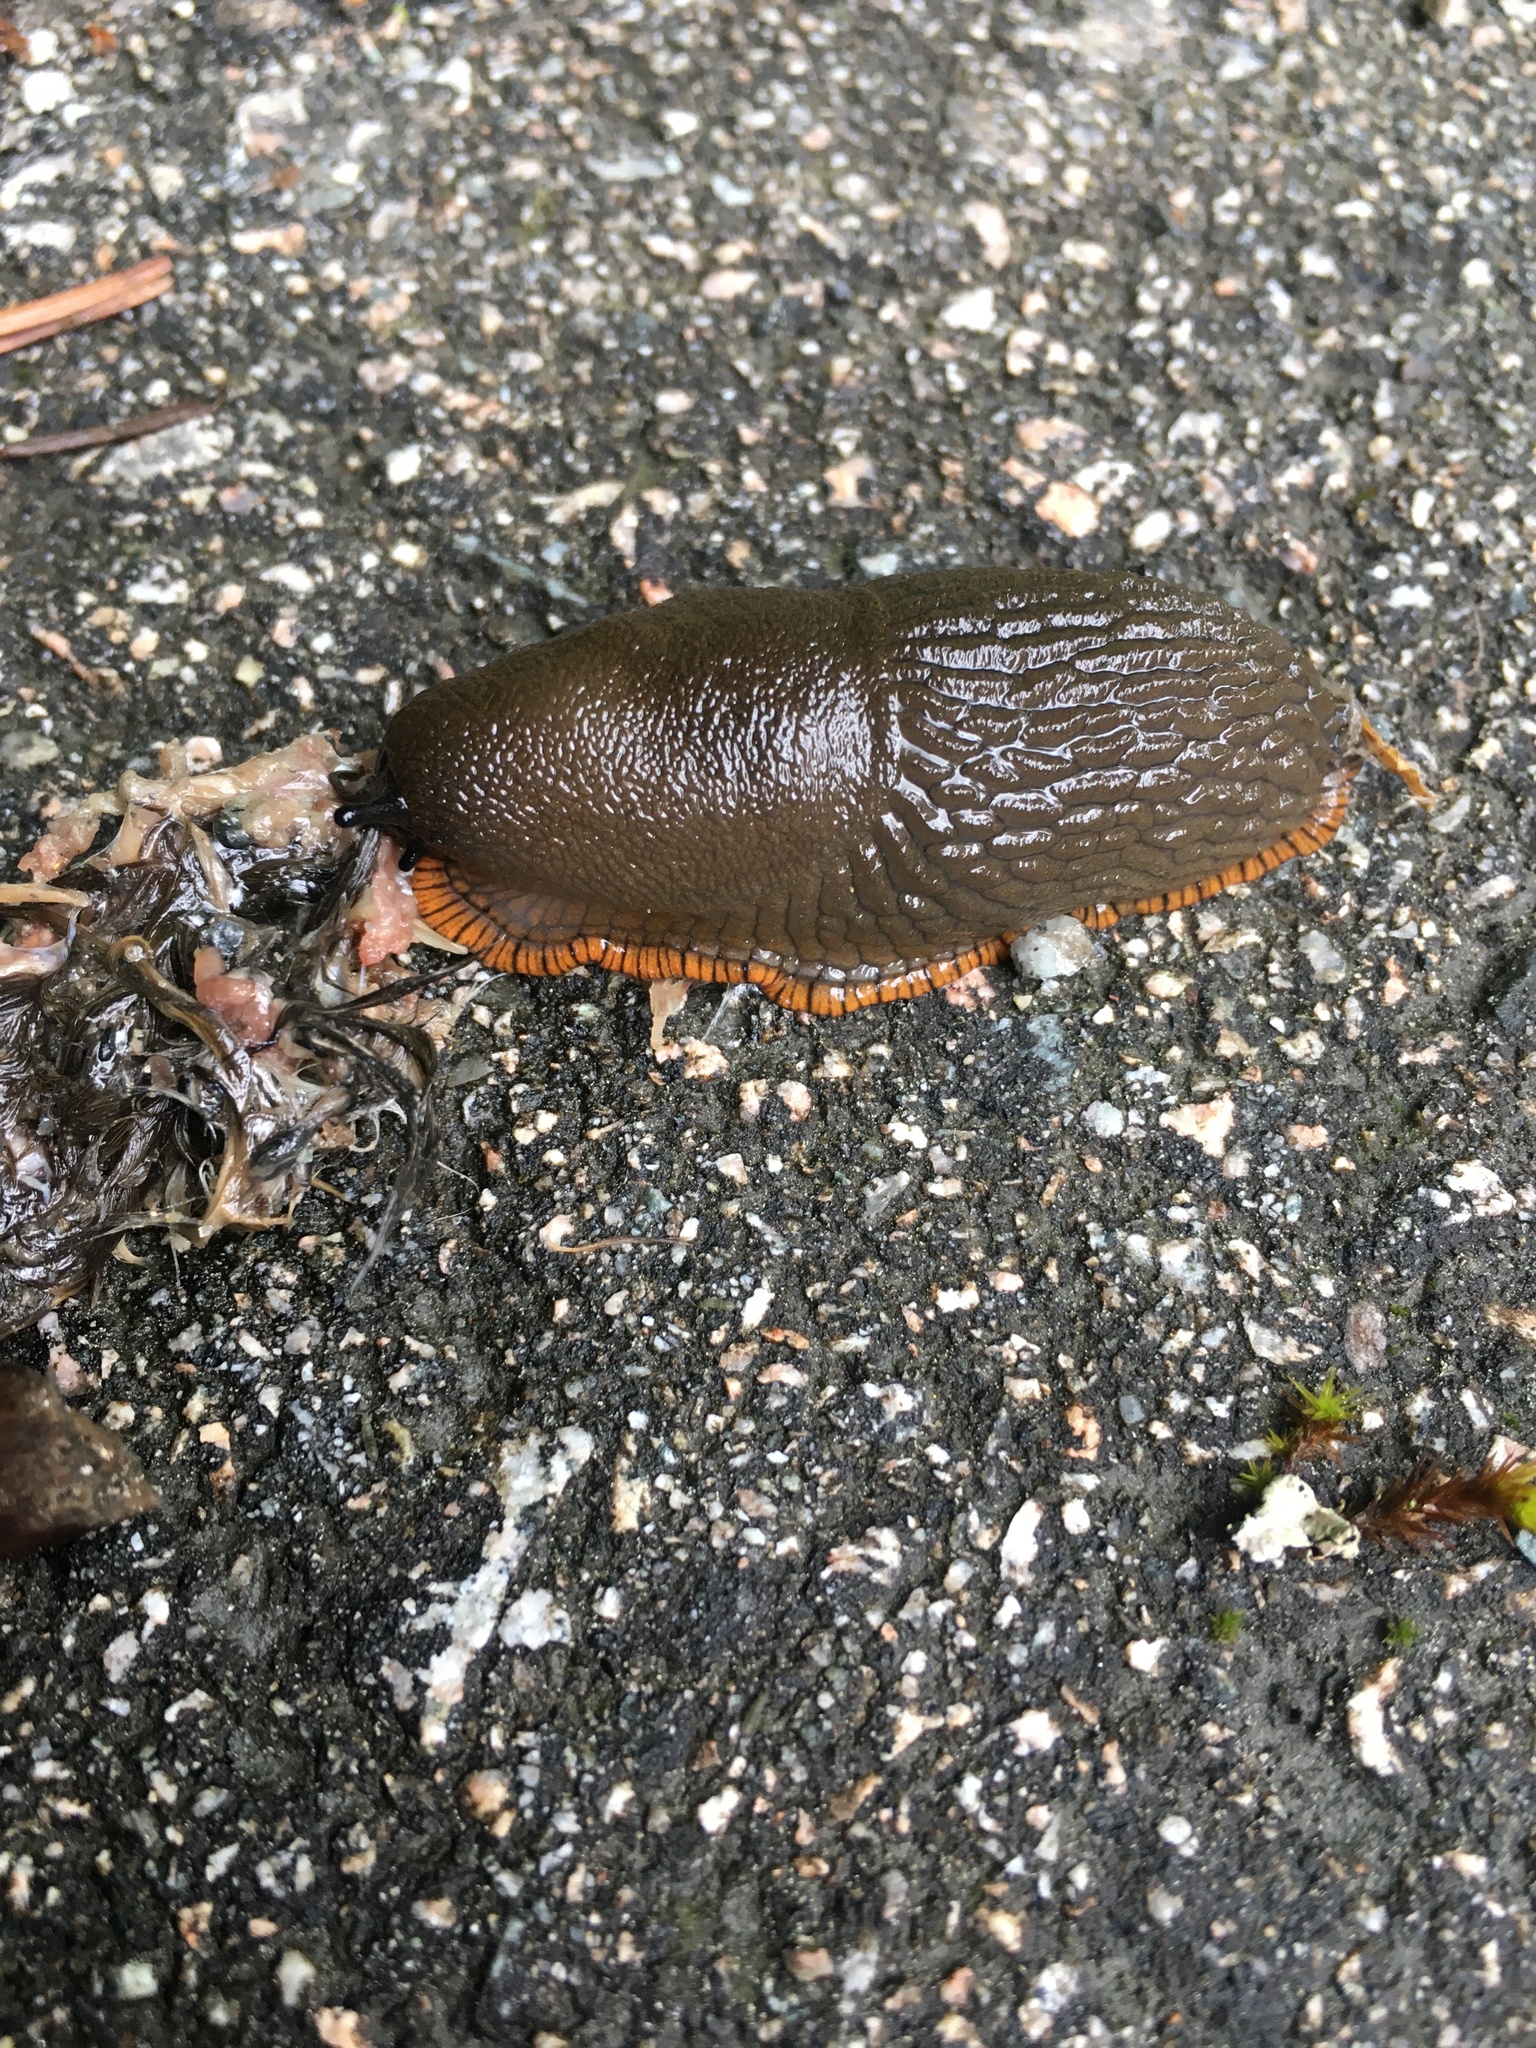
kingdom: Animalia
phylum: Mollusca
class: Gastropoda
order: Stylommatophora
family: Arionidae
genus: Arion
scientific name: Arion
